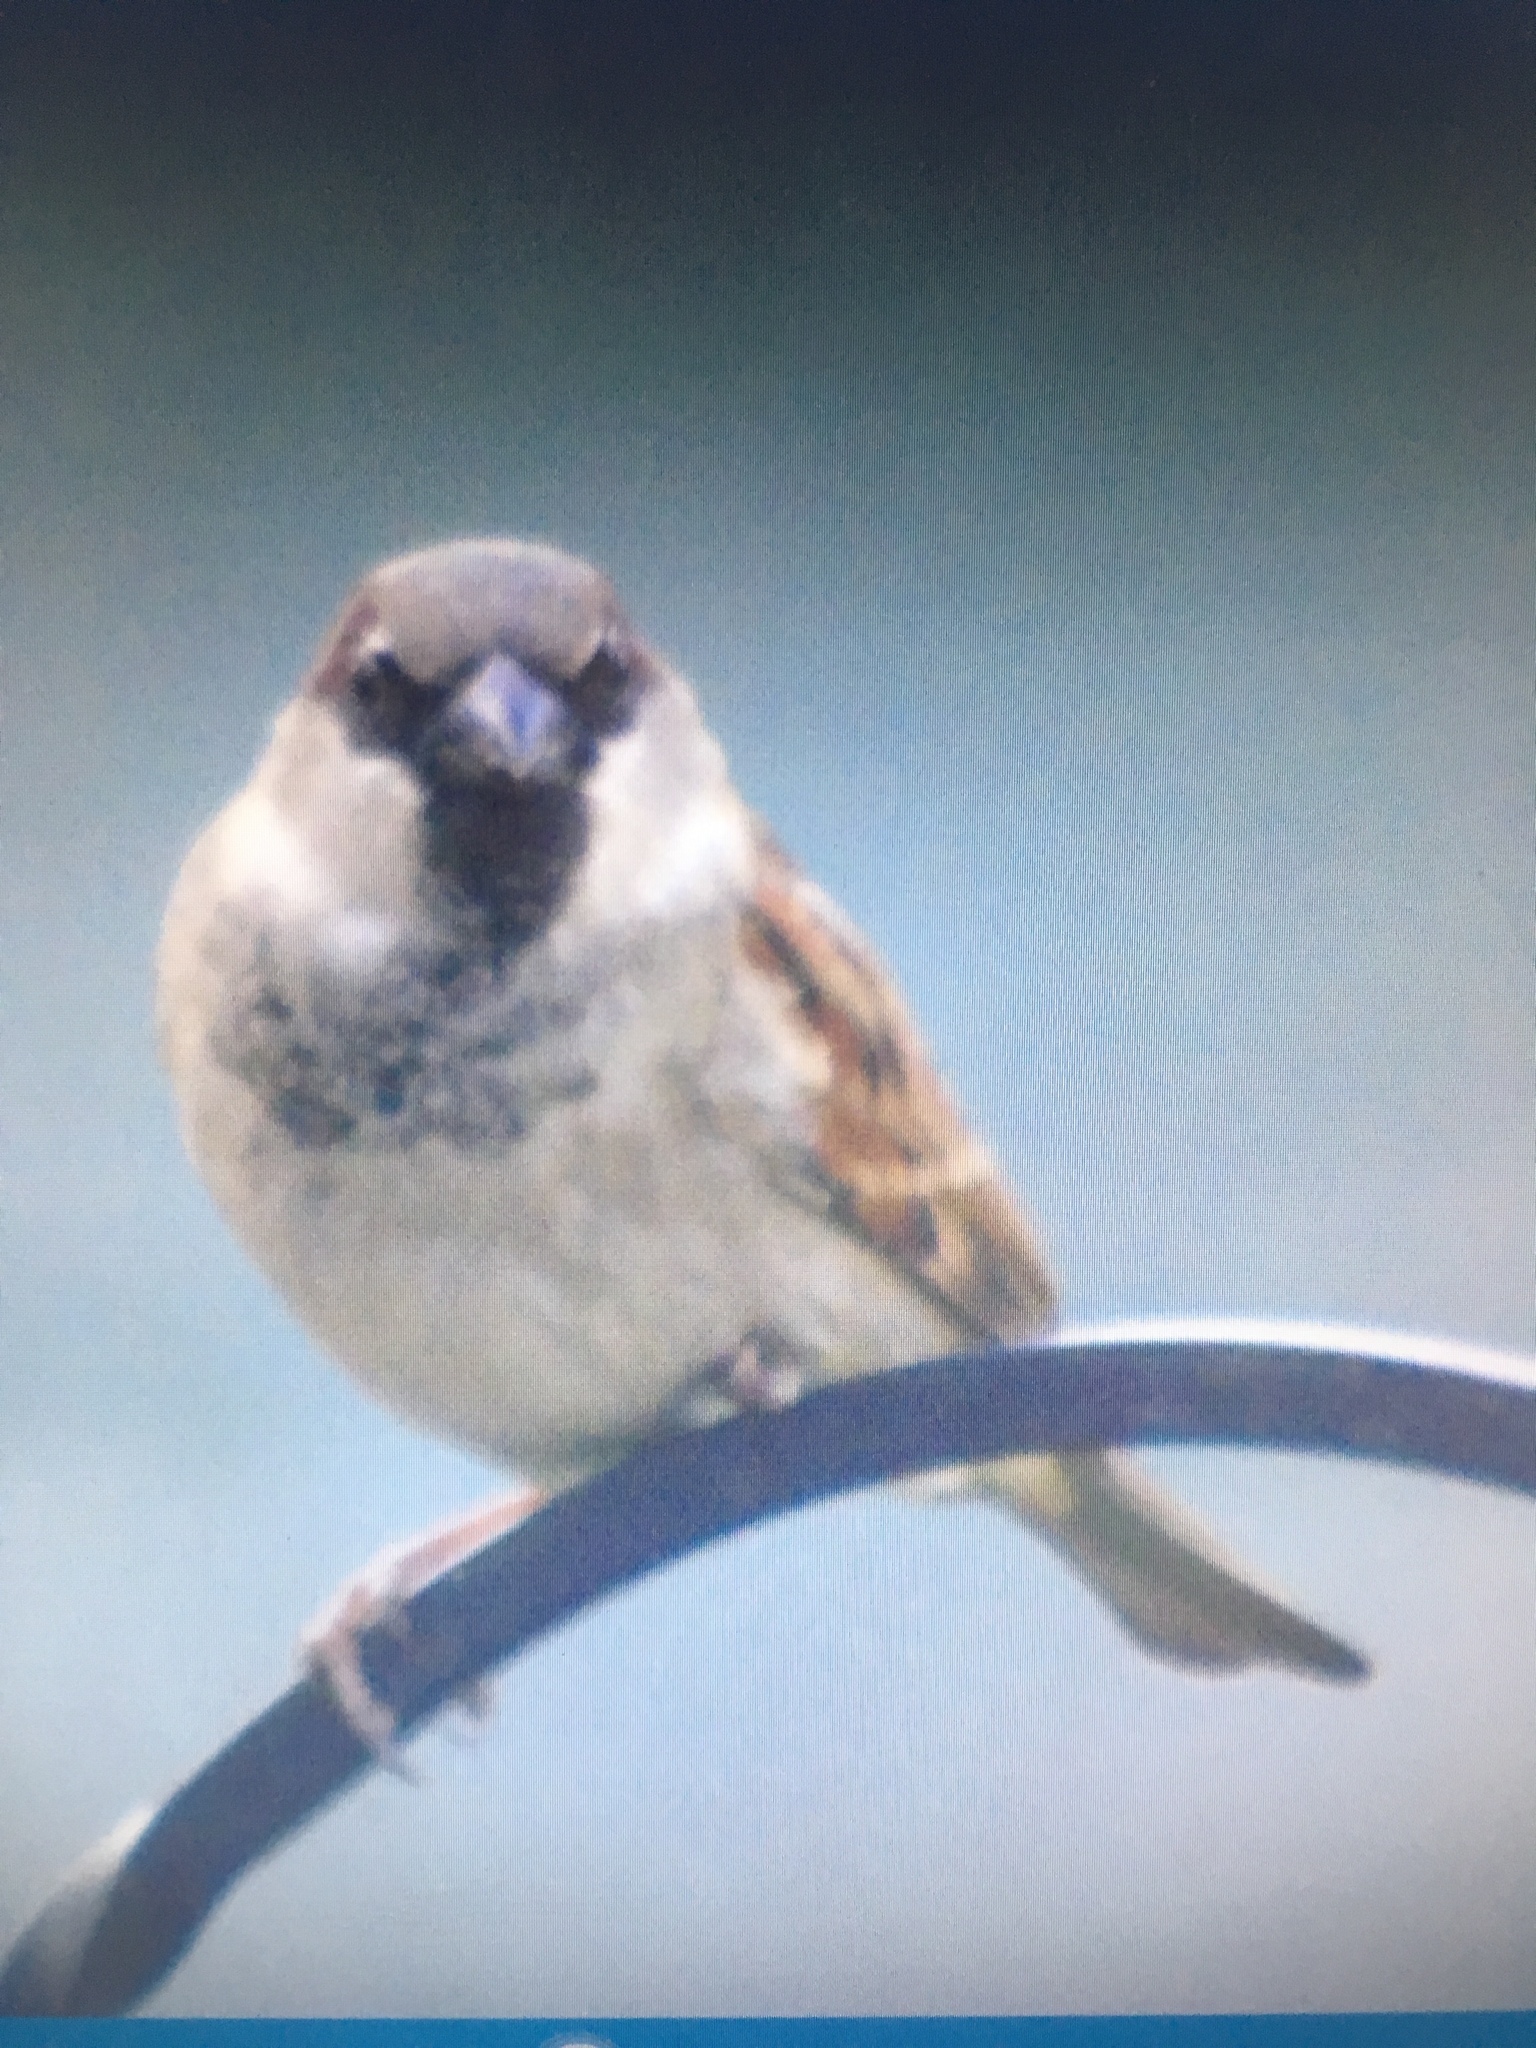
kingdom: Animalia
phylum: Chordata
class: Aves
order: Passeriformes
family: Passeridae
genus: Passer
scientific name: Passer domesticus
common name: House sparrow
